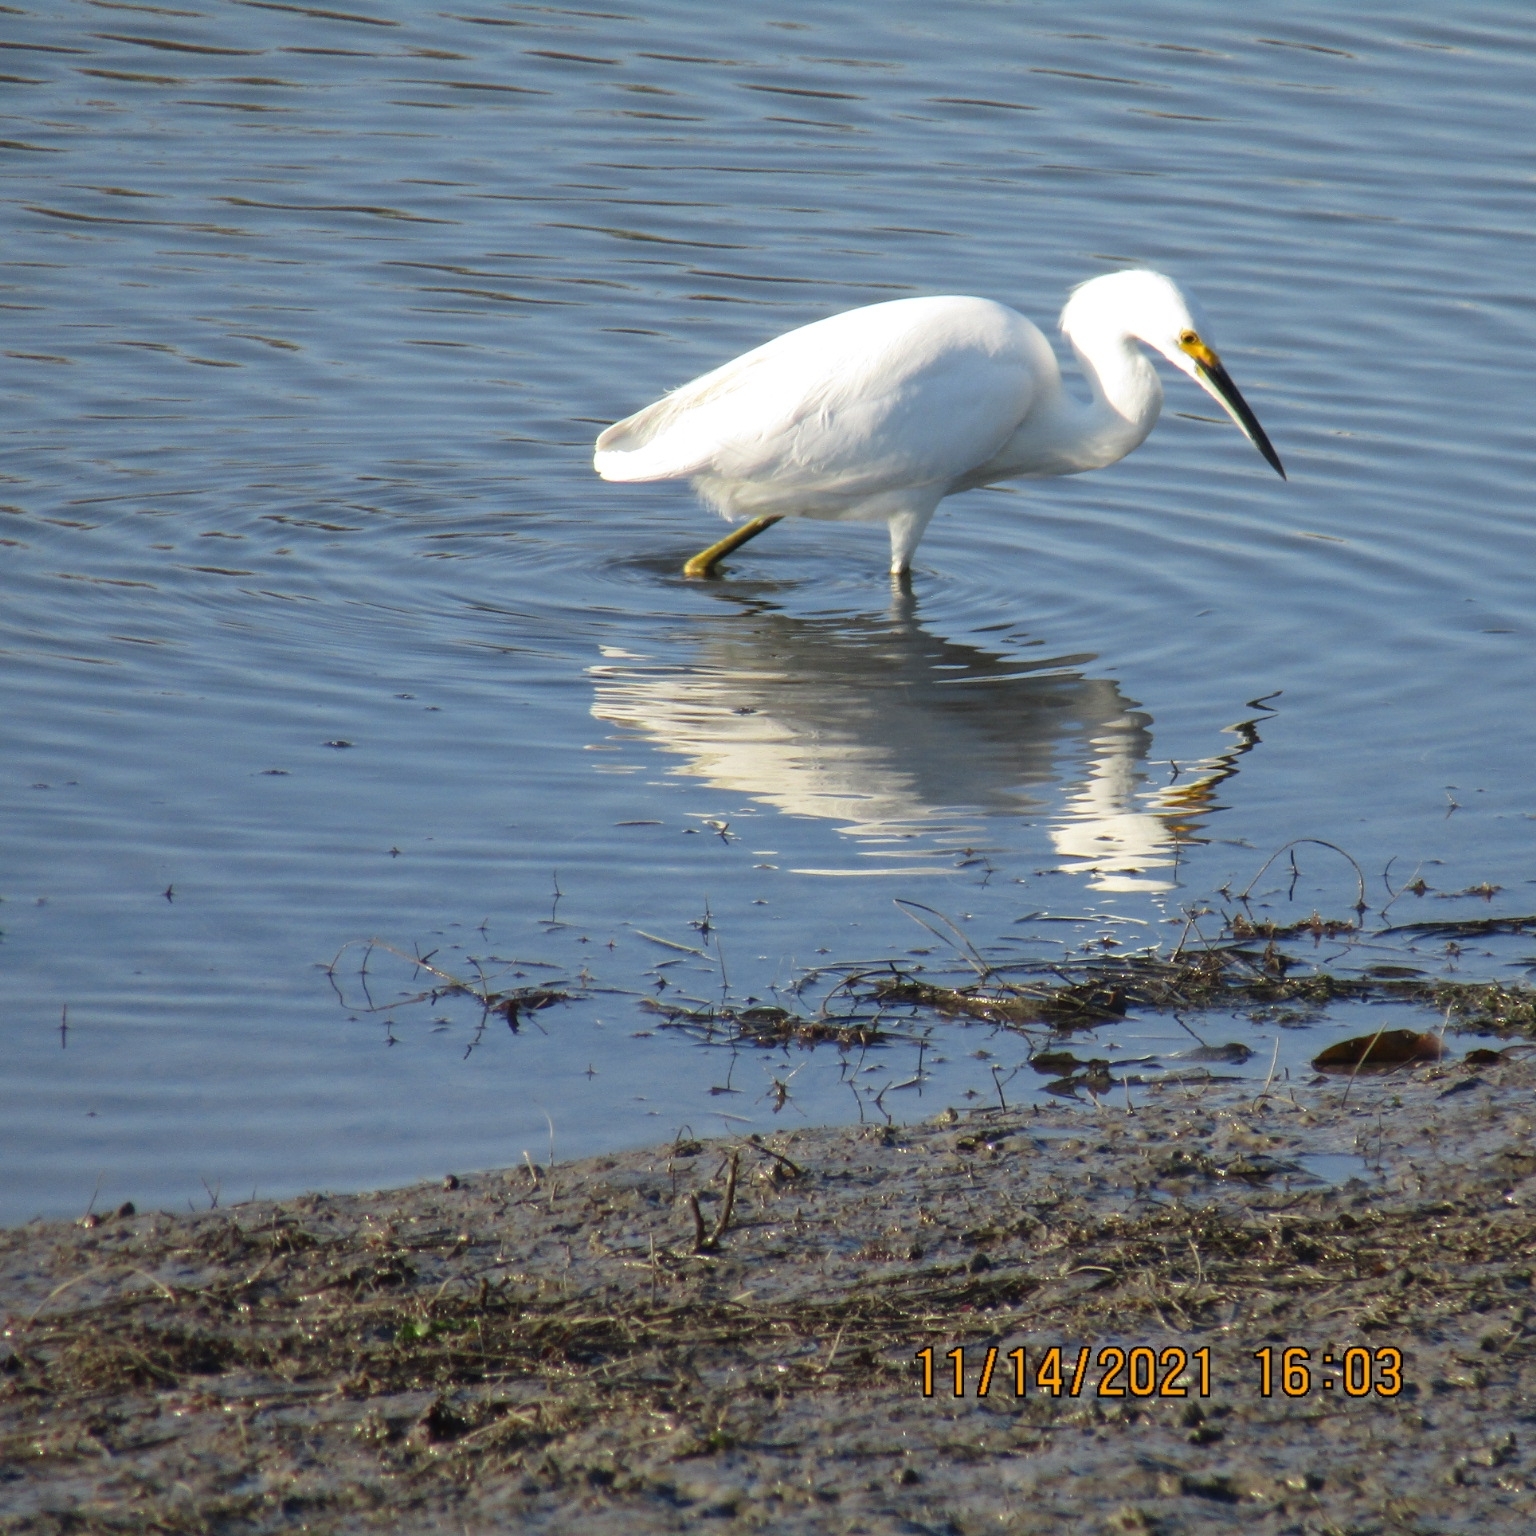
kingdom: Animalia
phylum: Chordata
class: Aves
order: Pelecaniformes
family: Ardeidae
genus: Egretta
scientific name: Egretta thula
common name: Snowy egret
